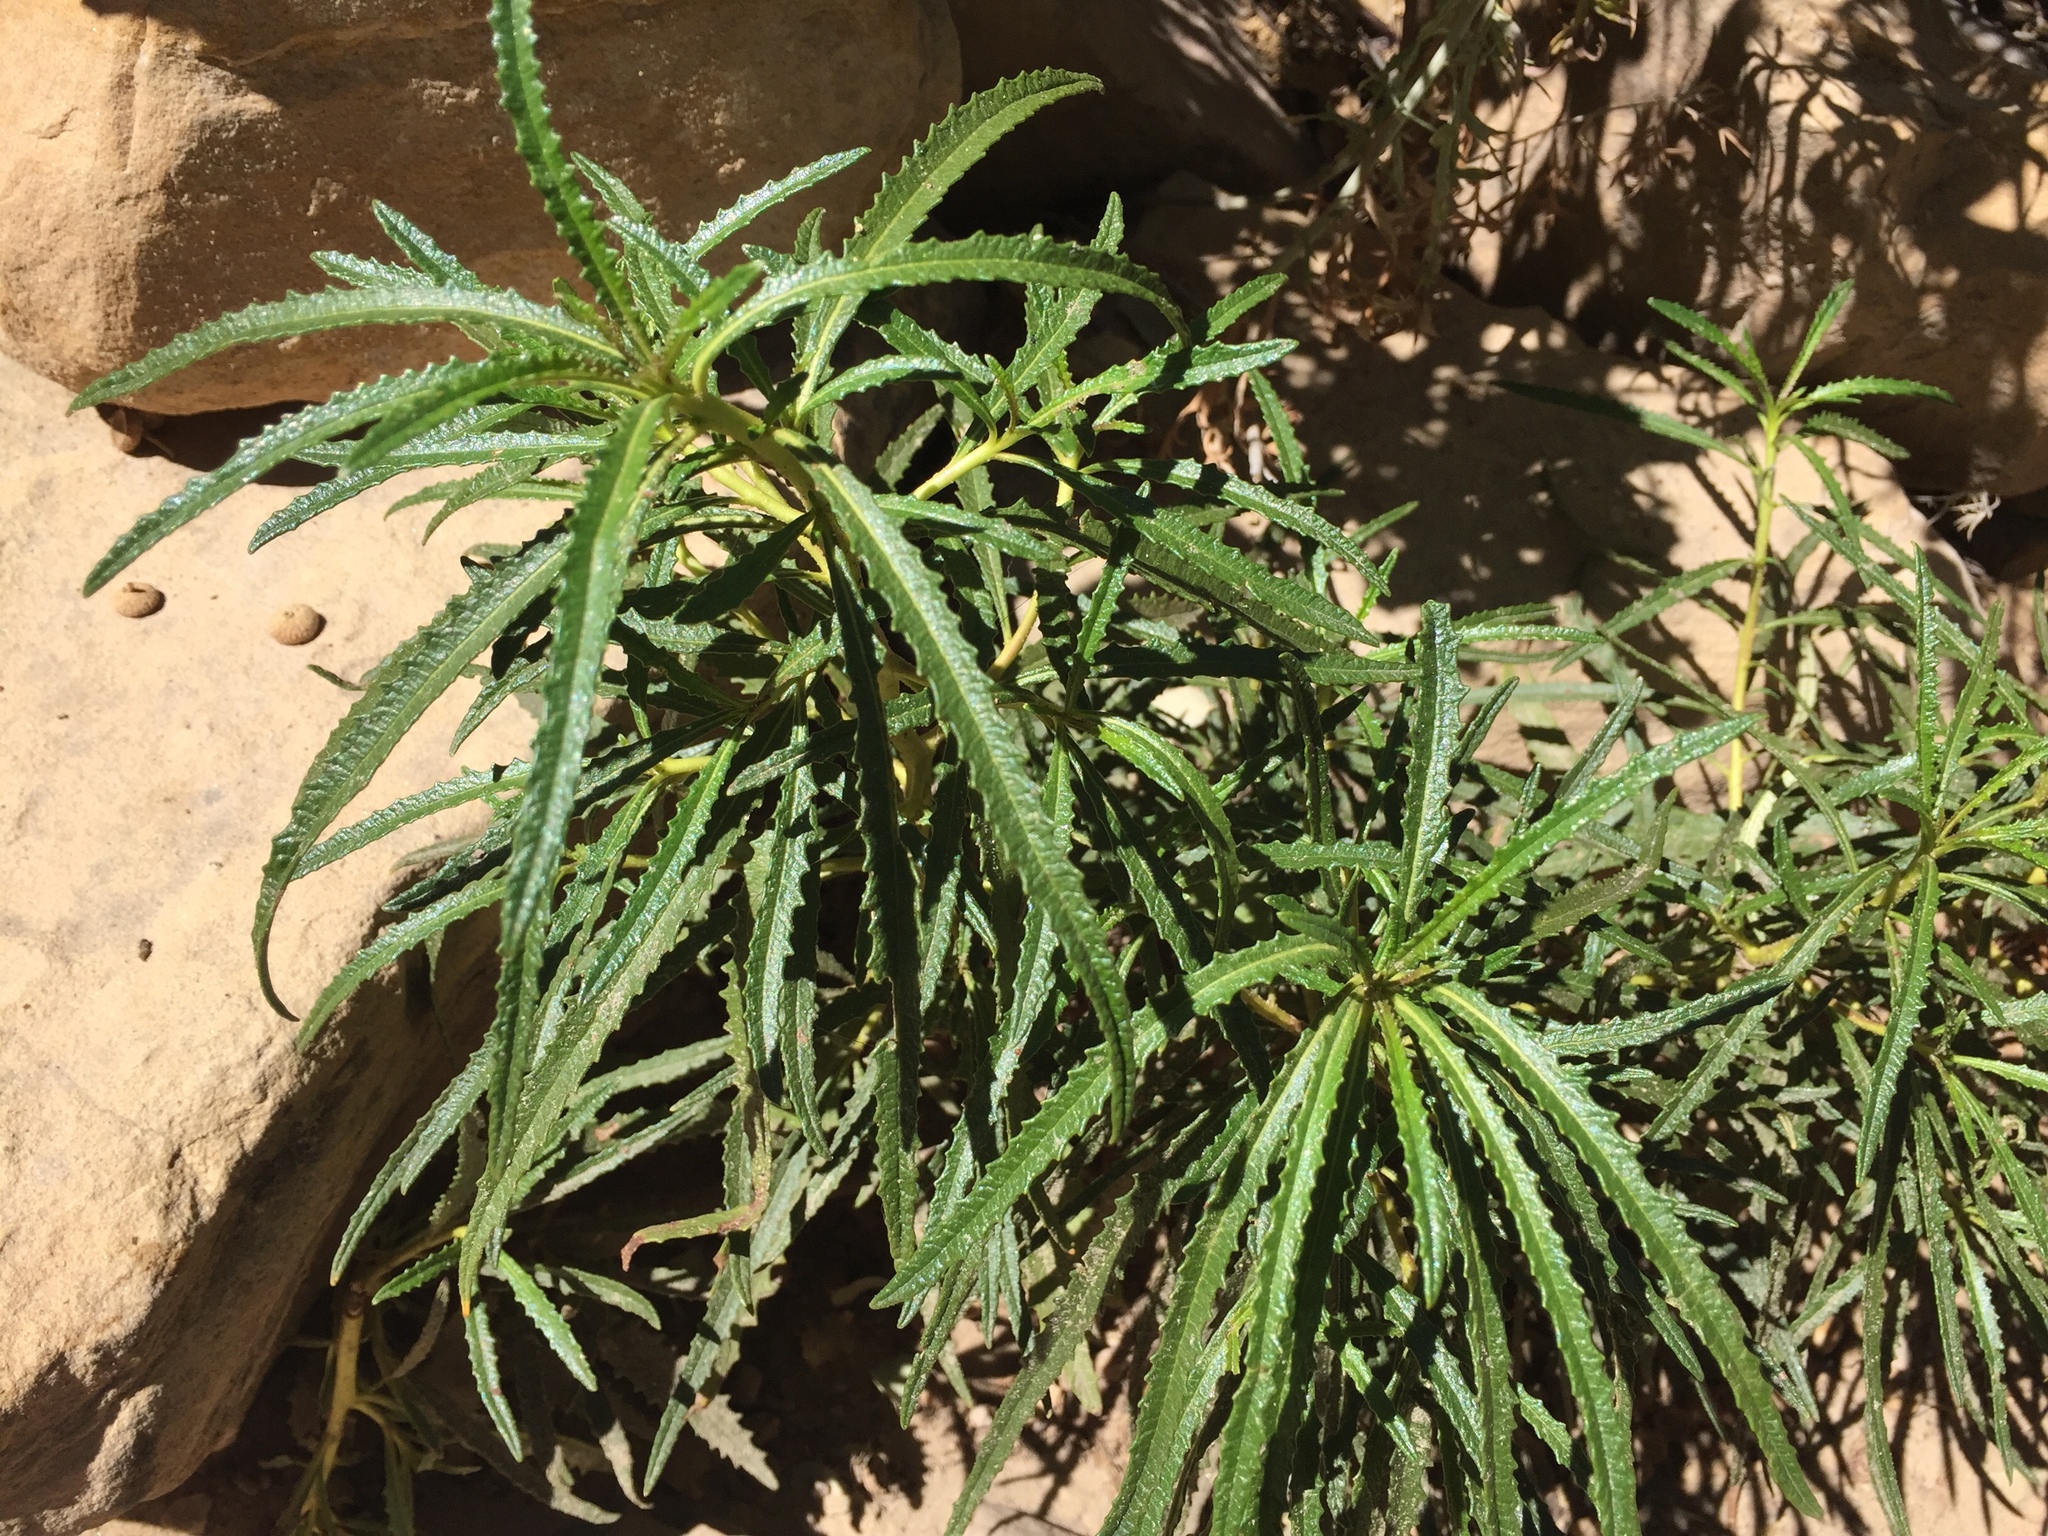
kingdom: Plantae
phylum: Tracheophyta
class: Magnoliopsida
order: Boraginales
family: Namaceae
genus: Eriodictyon
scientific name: Eriodictyon angustifolium
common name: Narrow-leaf yerba santa
